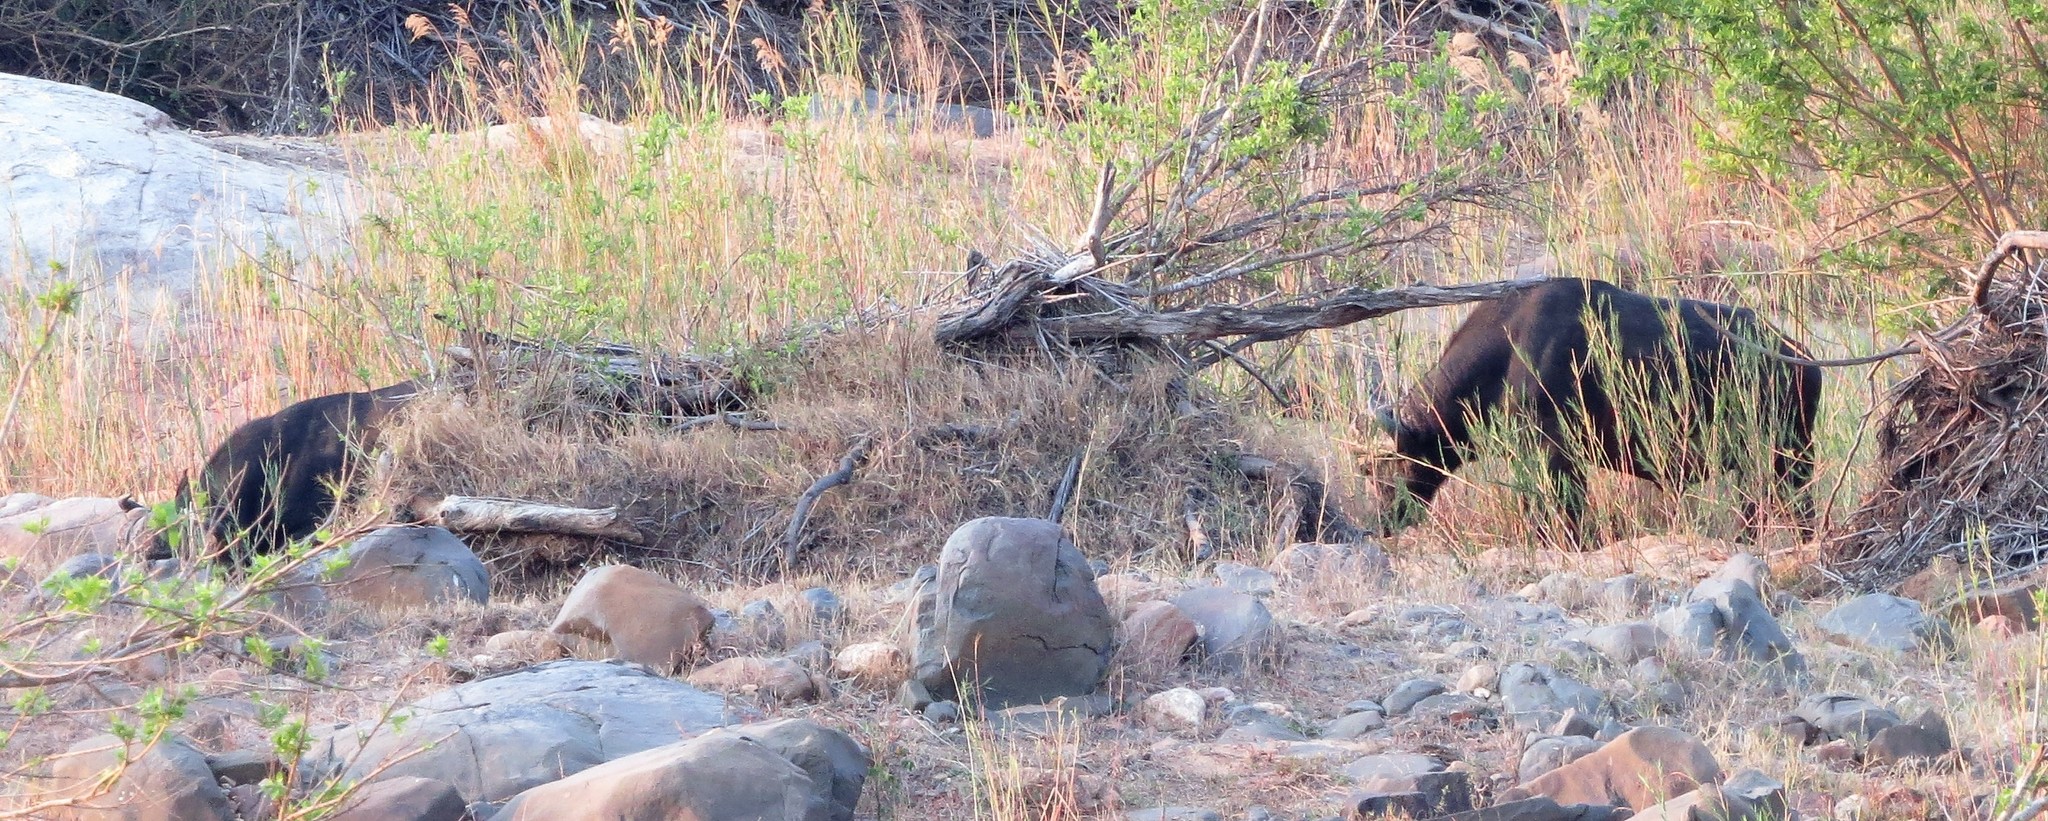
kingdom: Animalia
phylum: Chordata
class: Mammalia
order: Artiodactyla
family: Bovidae
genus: Syncerus
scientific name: Syncerus caffer
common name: African buffalo
